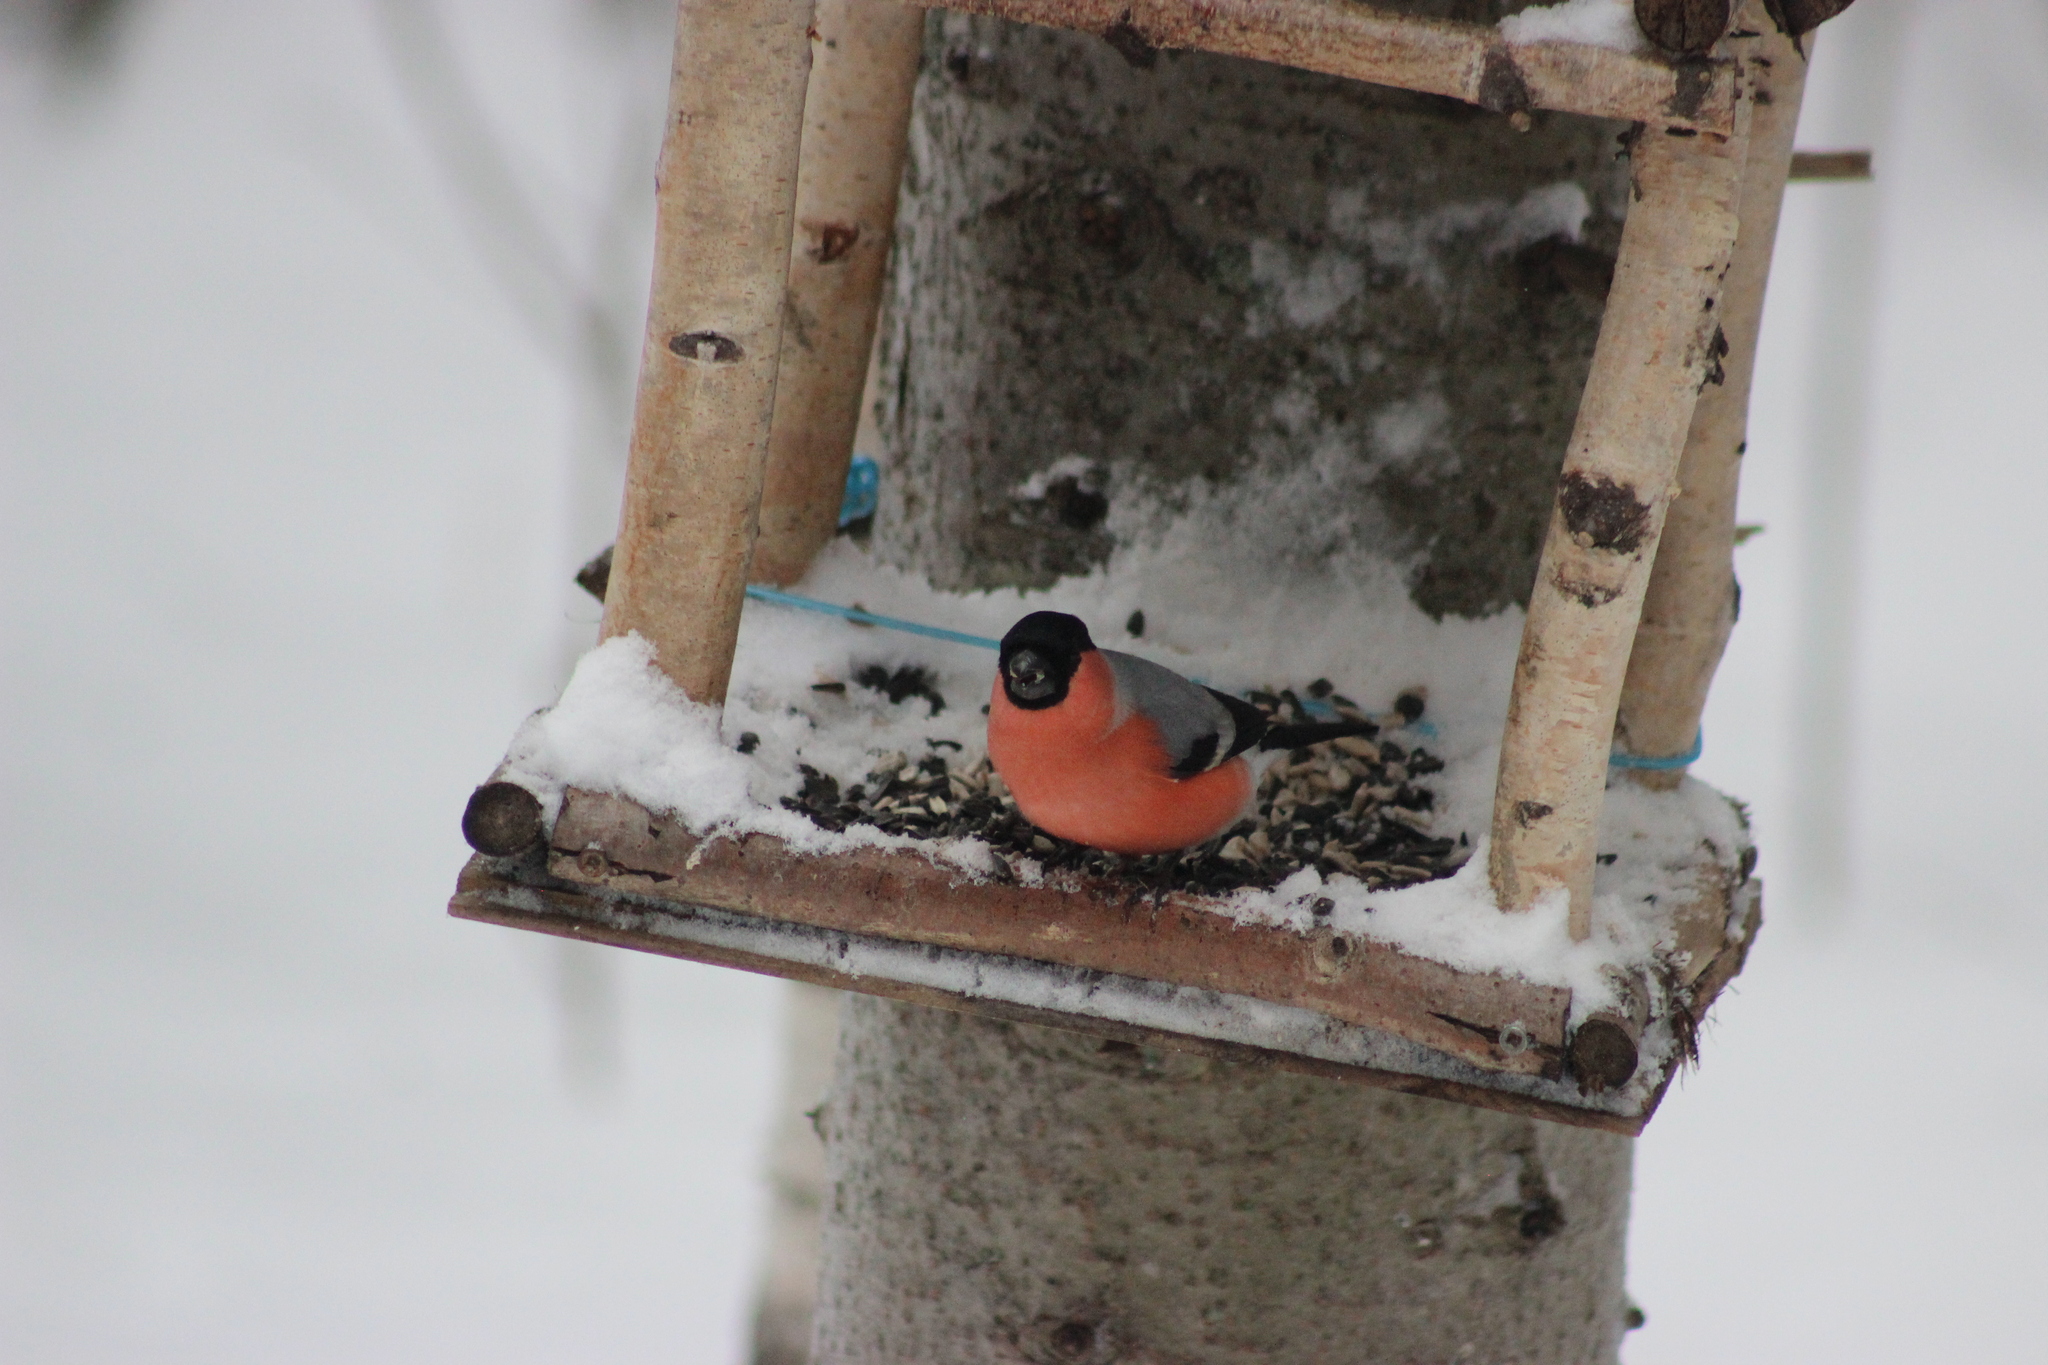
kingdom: Animalia
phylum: Chordata
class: Aves
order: Passeriformes
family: Fringillidae
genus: Pyrrhula
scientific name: Pyrrhula pyrrhula
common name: Eurasian bullfinch
